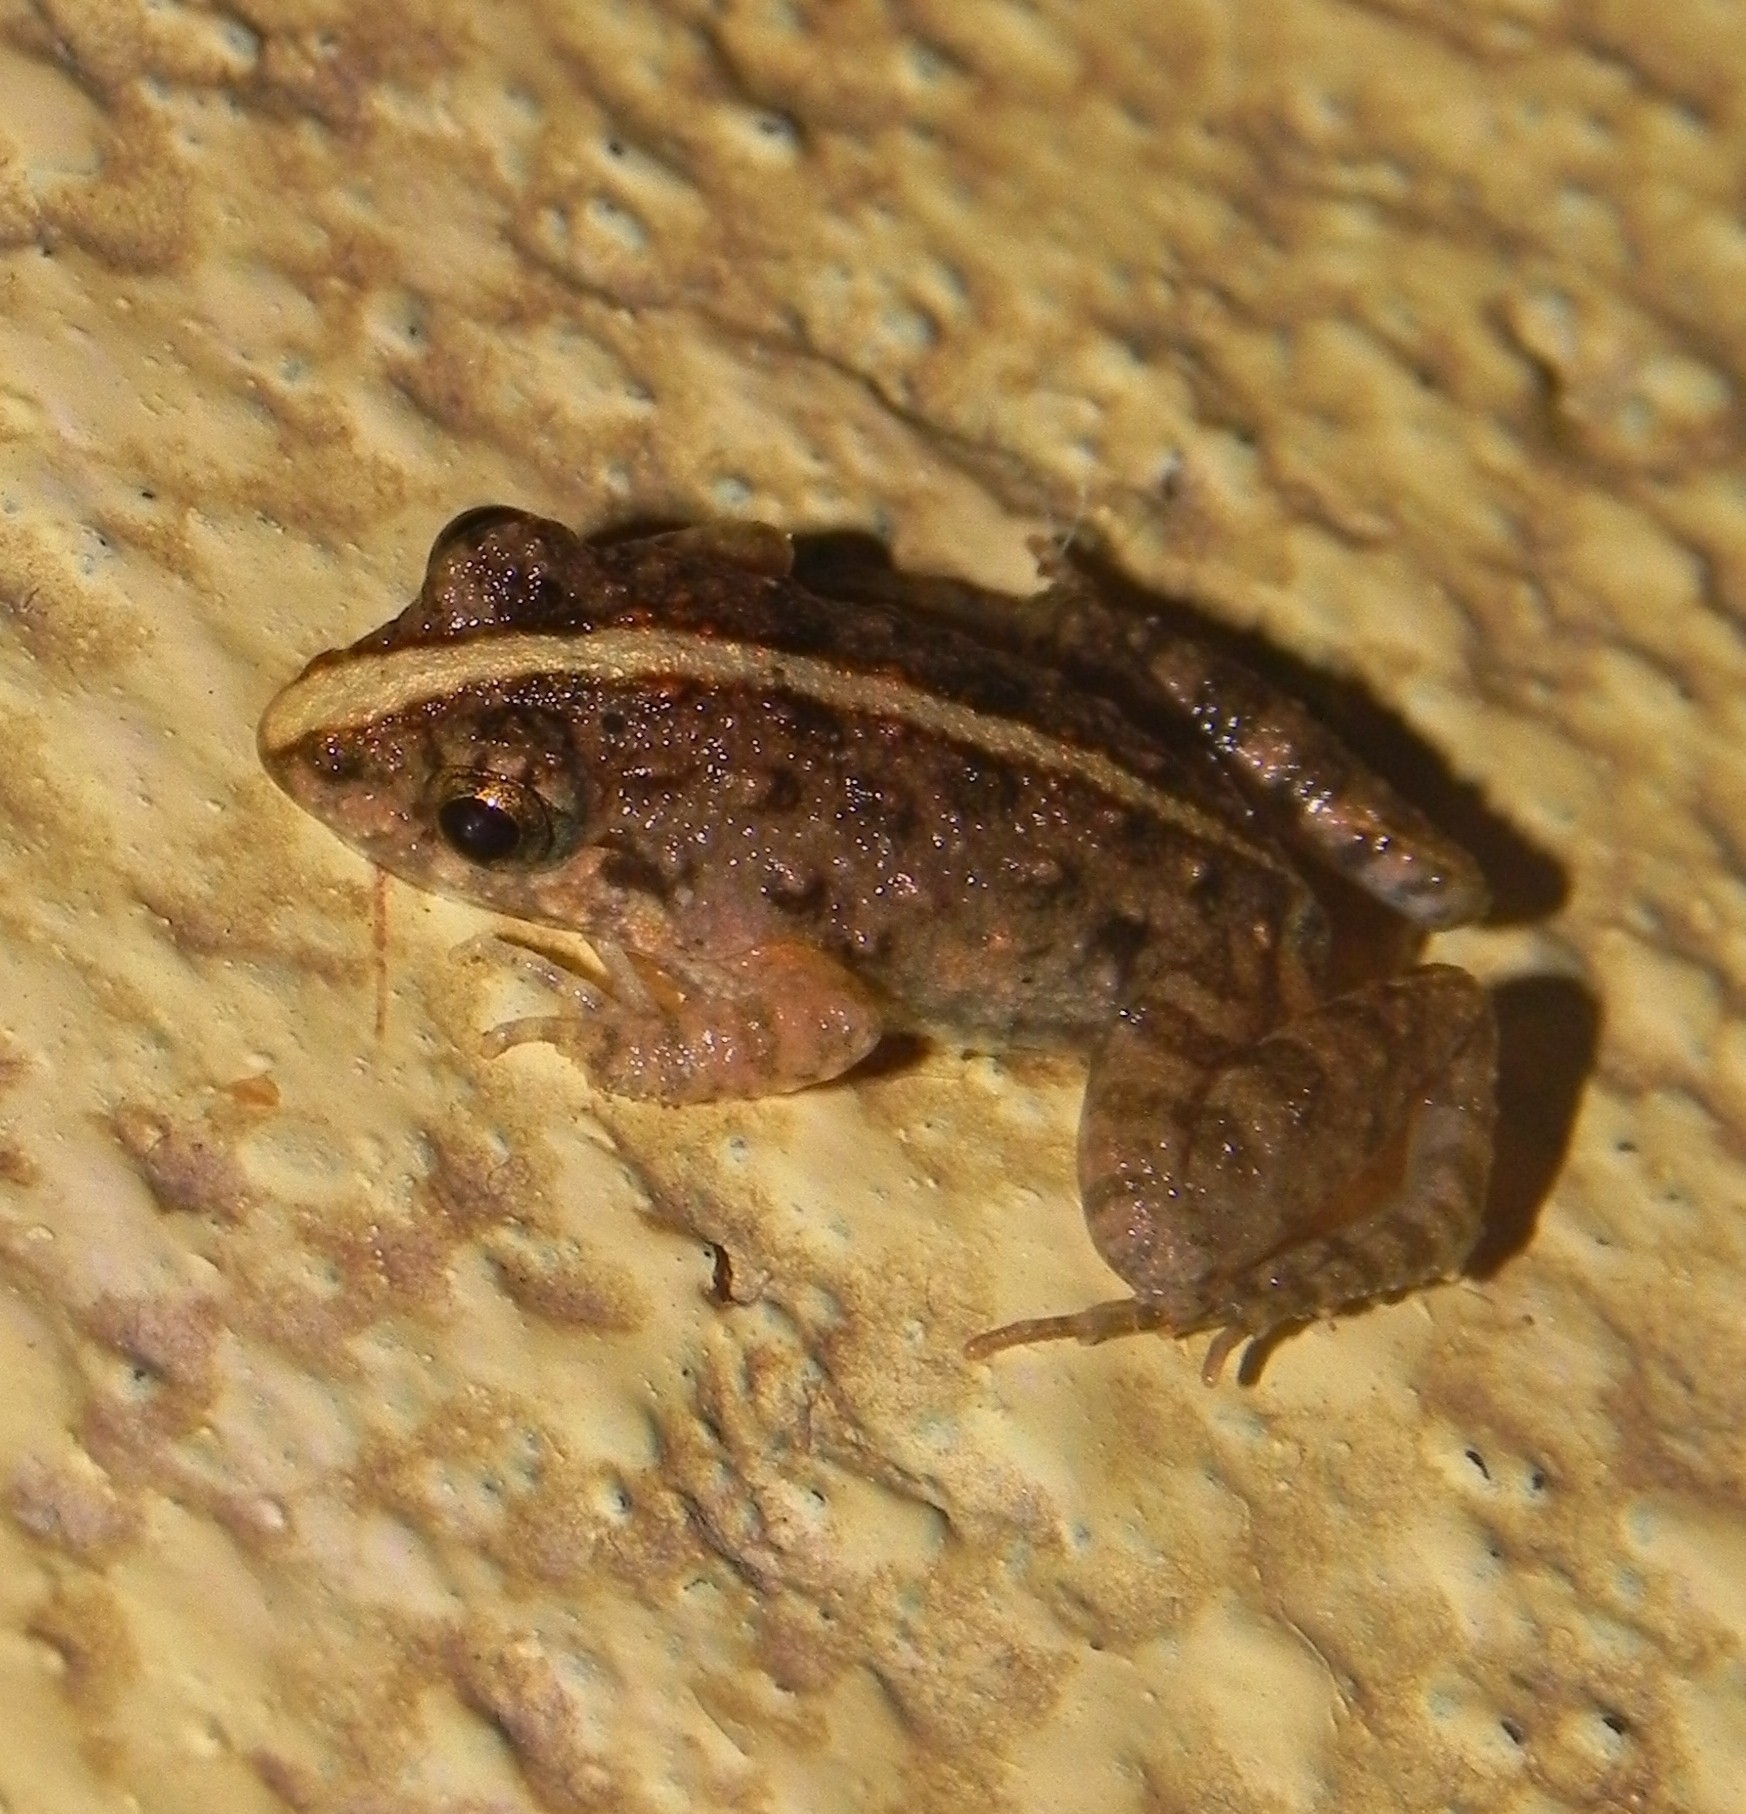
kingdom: Animalia
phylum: Chordata
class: Amphibia
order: Anura
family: Dicroglossidae
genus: Fejervarya
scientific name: Fejervarya limnocharis
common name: Asian grass frog/common pond frog/field frog/grass frog/indian rice frog
